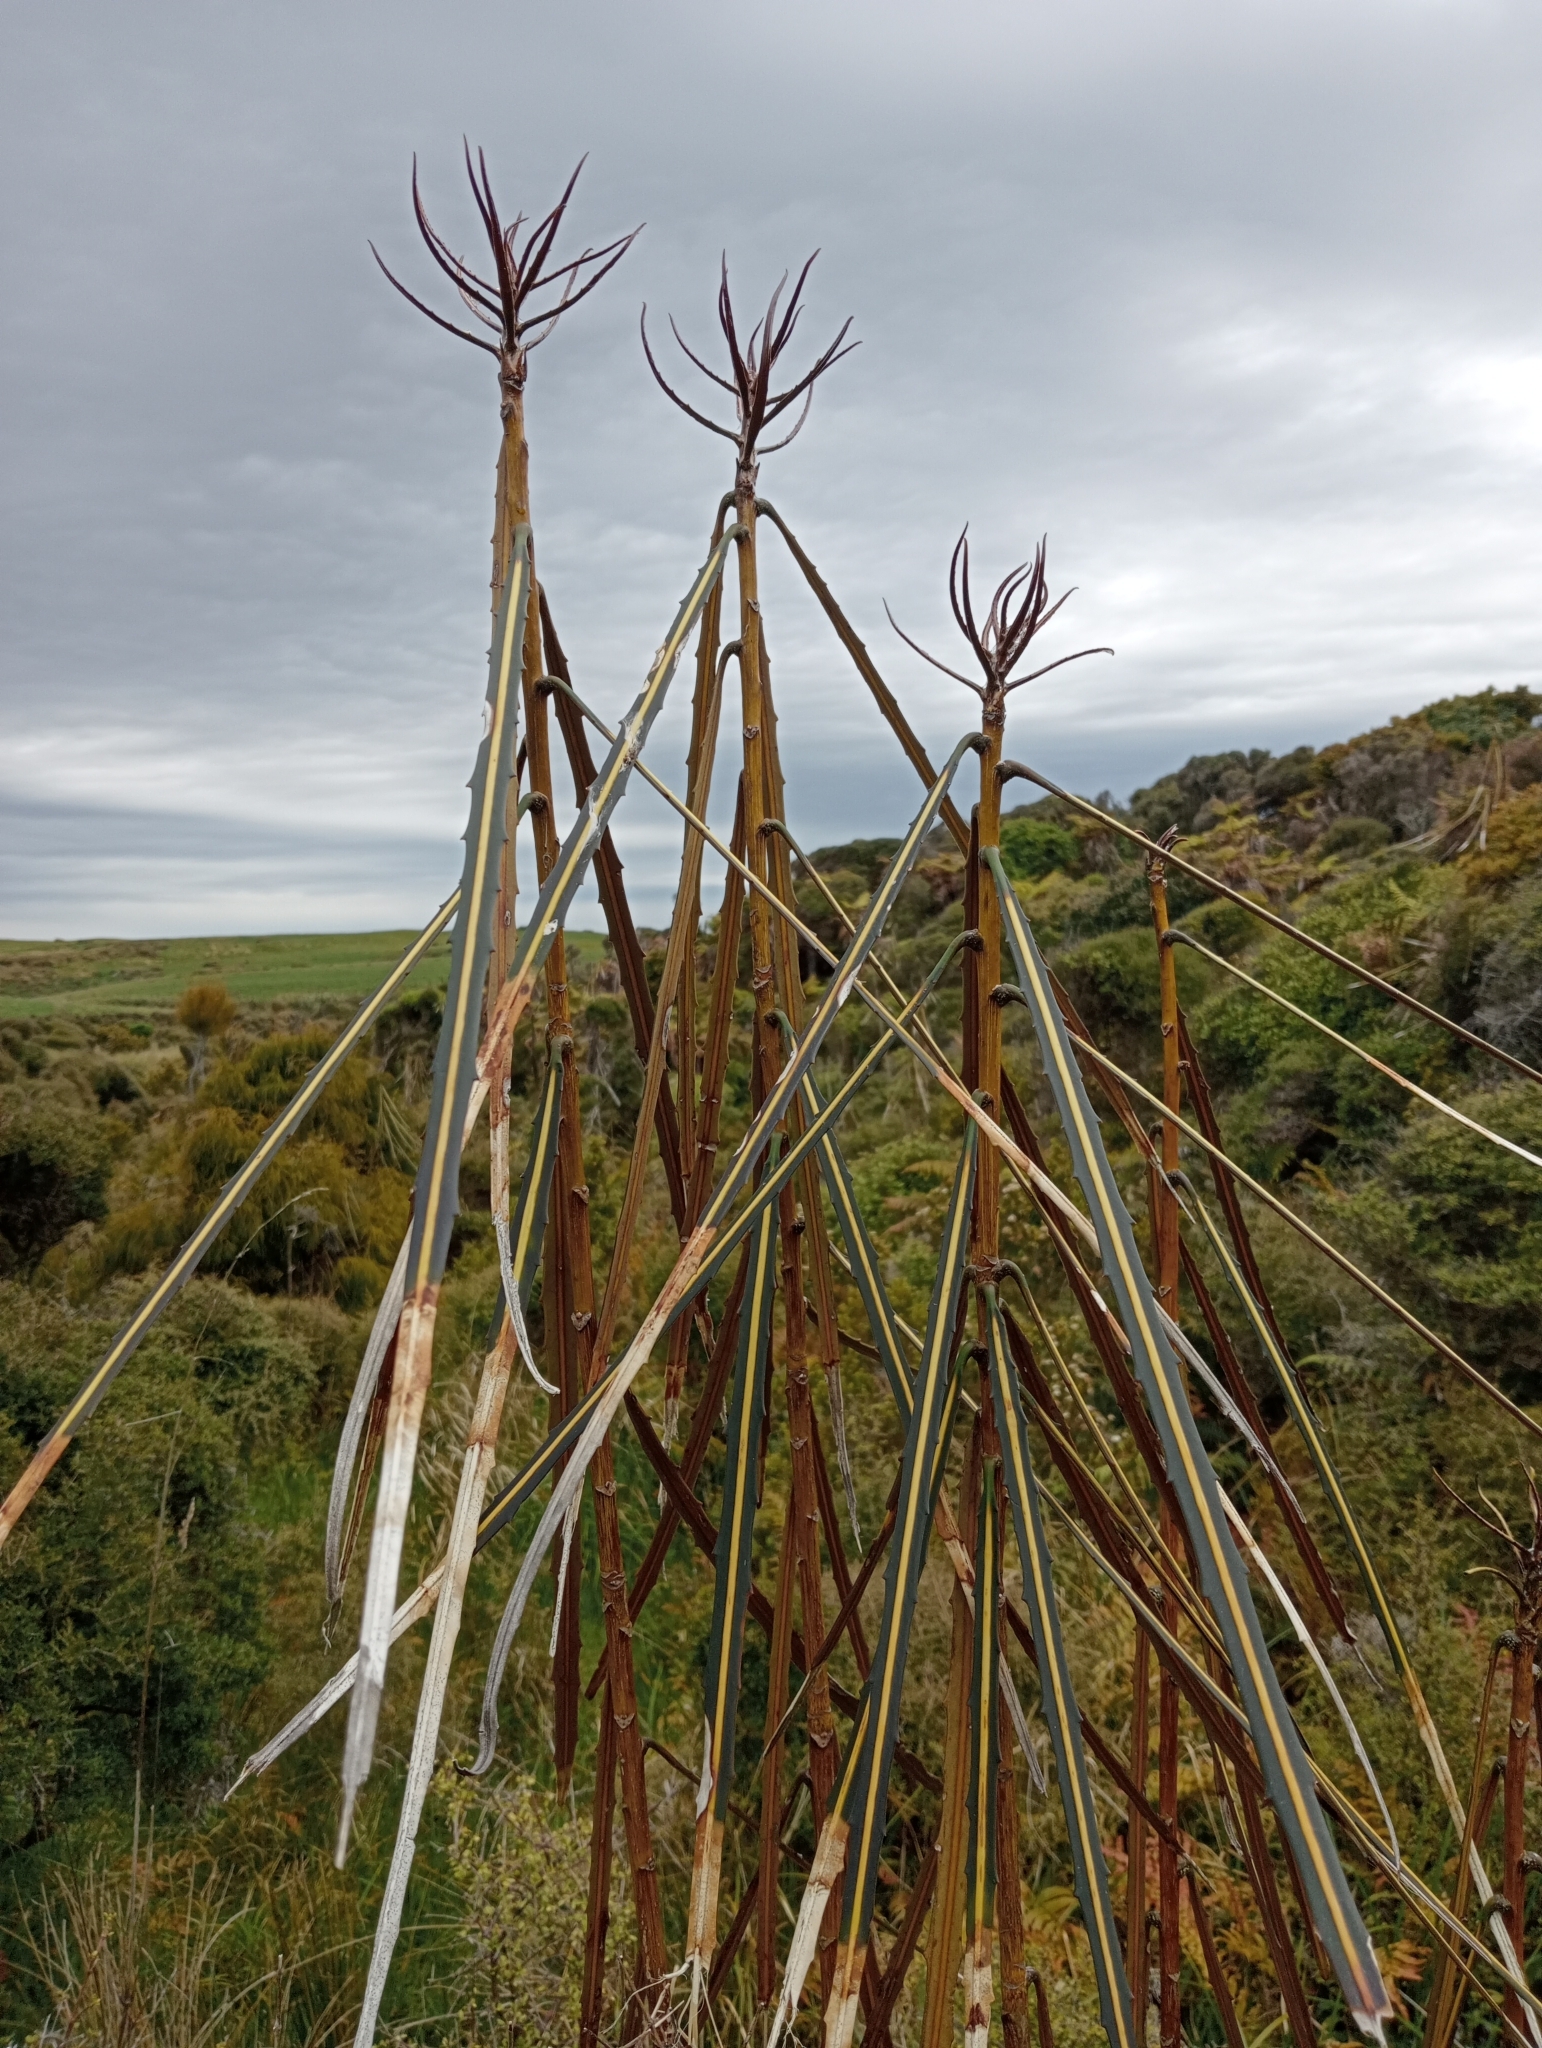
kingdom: Plantae
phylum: Tracheophyta
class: Magnoliopsida
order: Apiales
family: Araliaceae
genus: Pseudopanax
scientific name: Pseudopanax crassifolius
